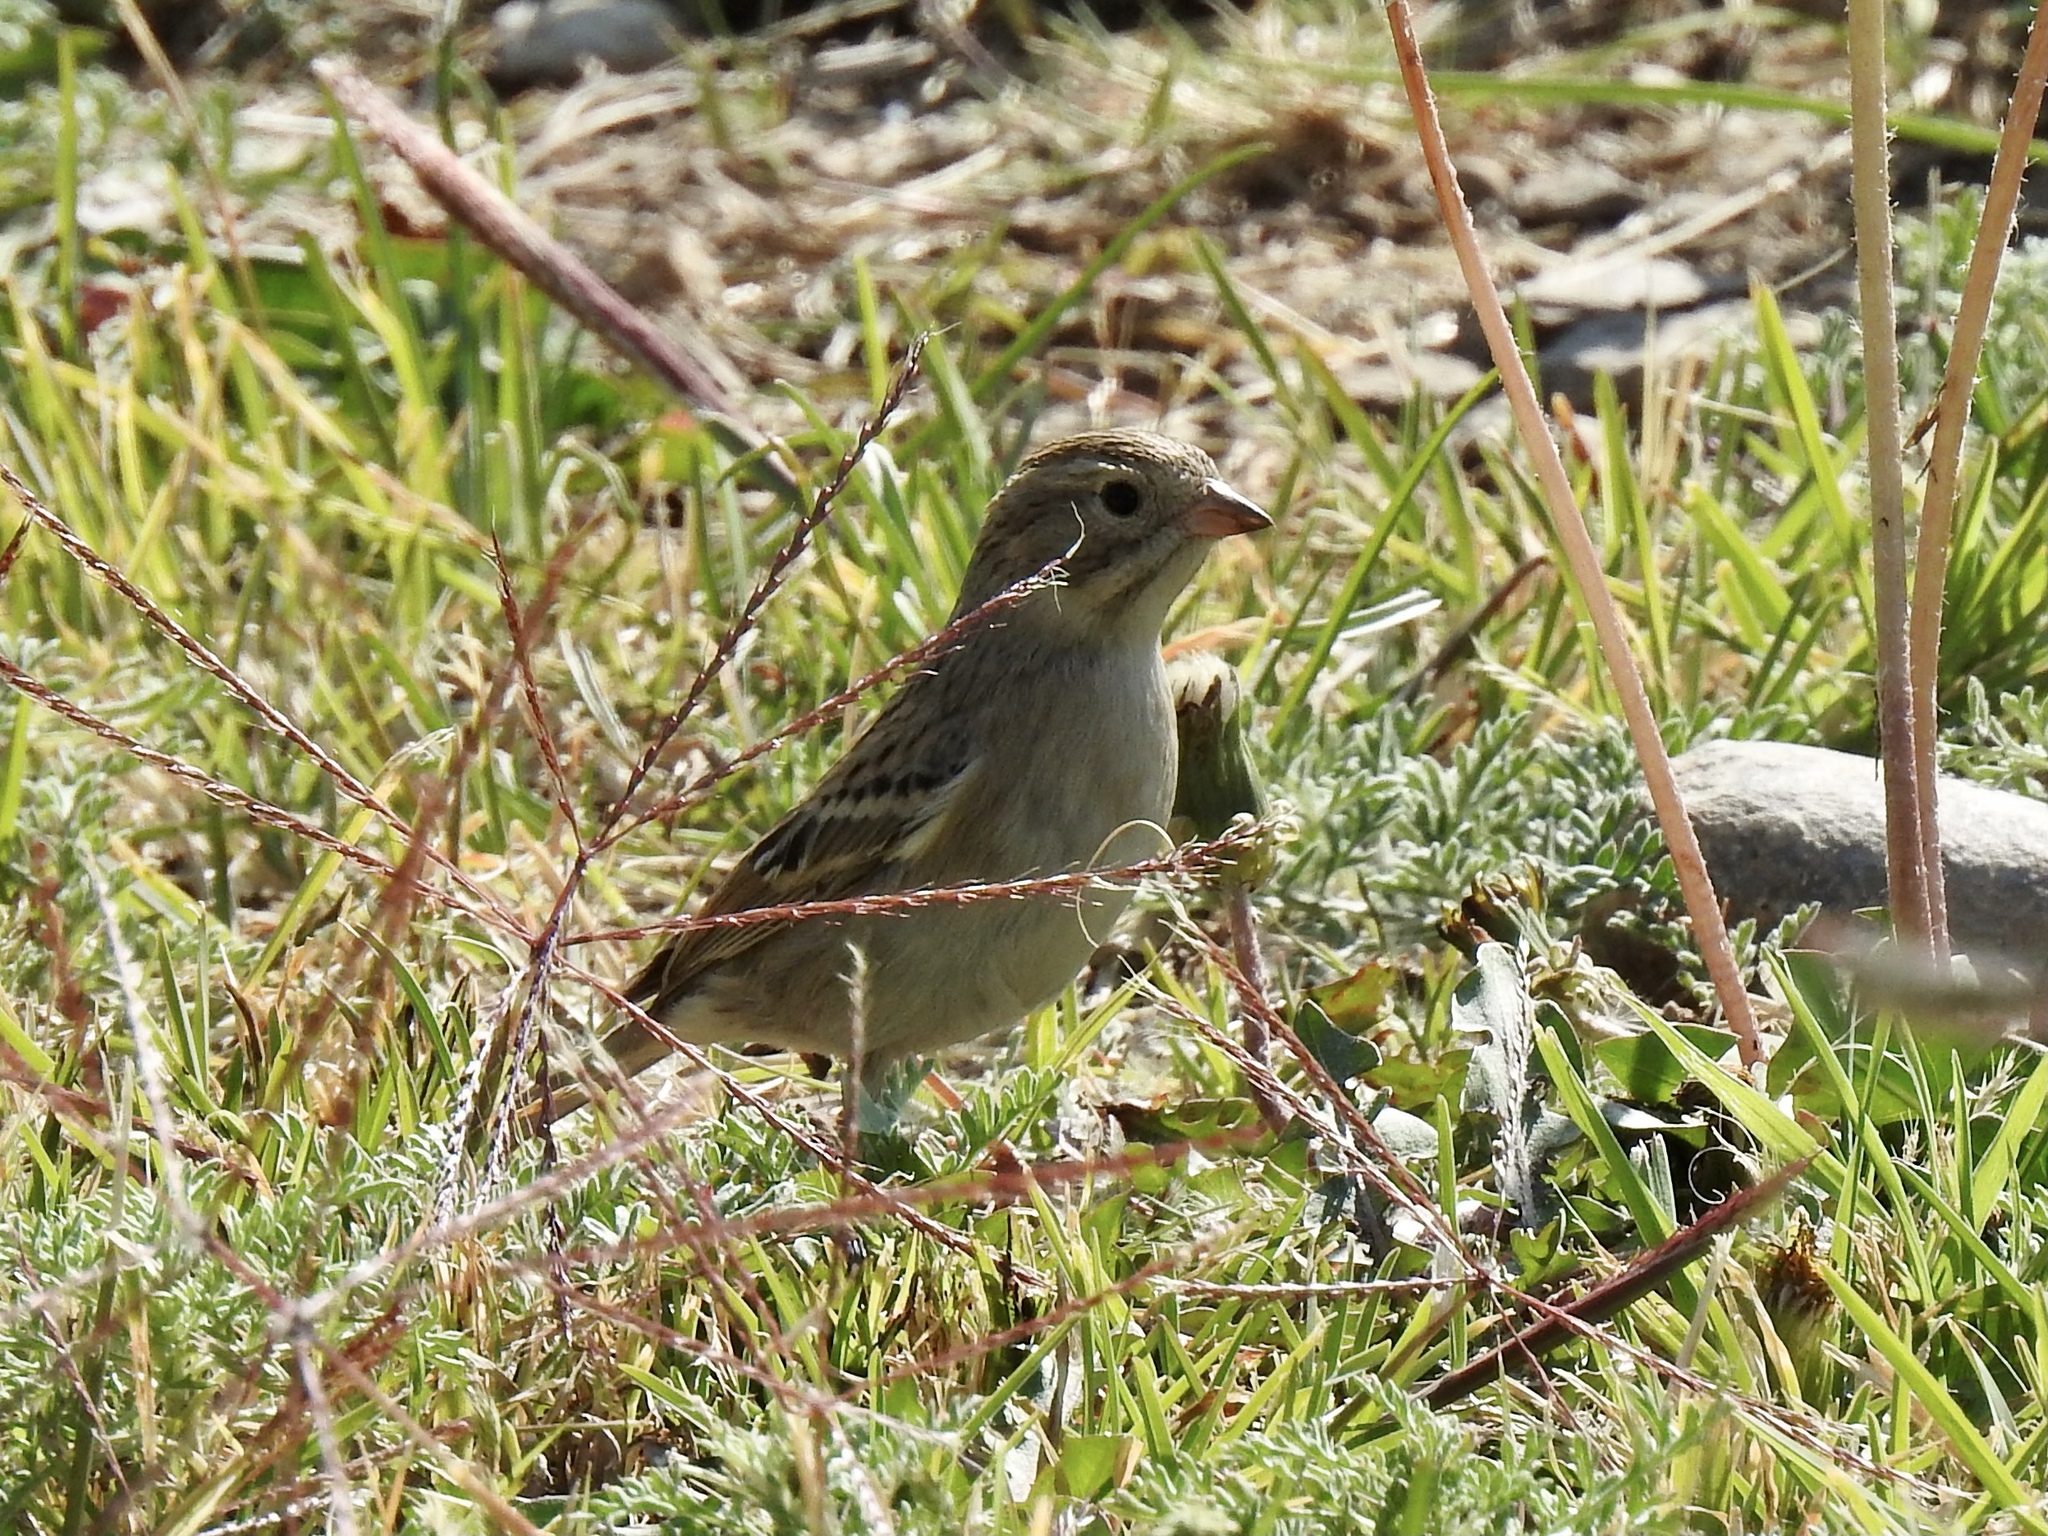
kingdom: Animalia
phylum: Chordata
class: Aves
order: Passeriformes
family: Passerellidae
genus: Spizella
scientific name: Spizella breweri
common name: Brewer's sparrow
